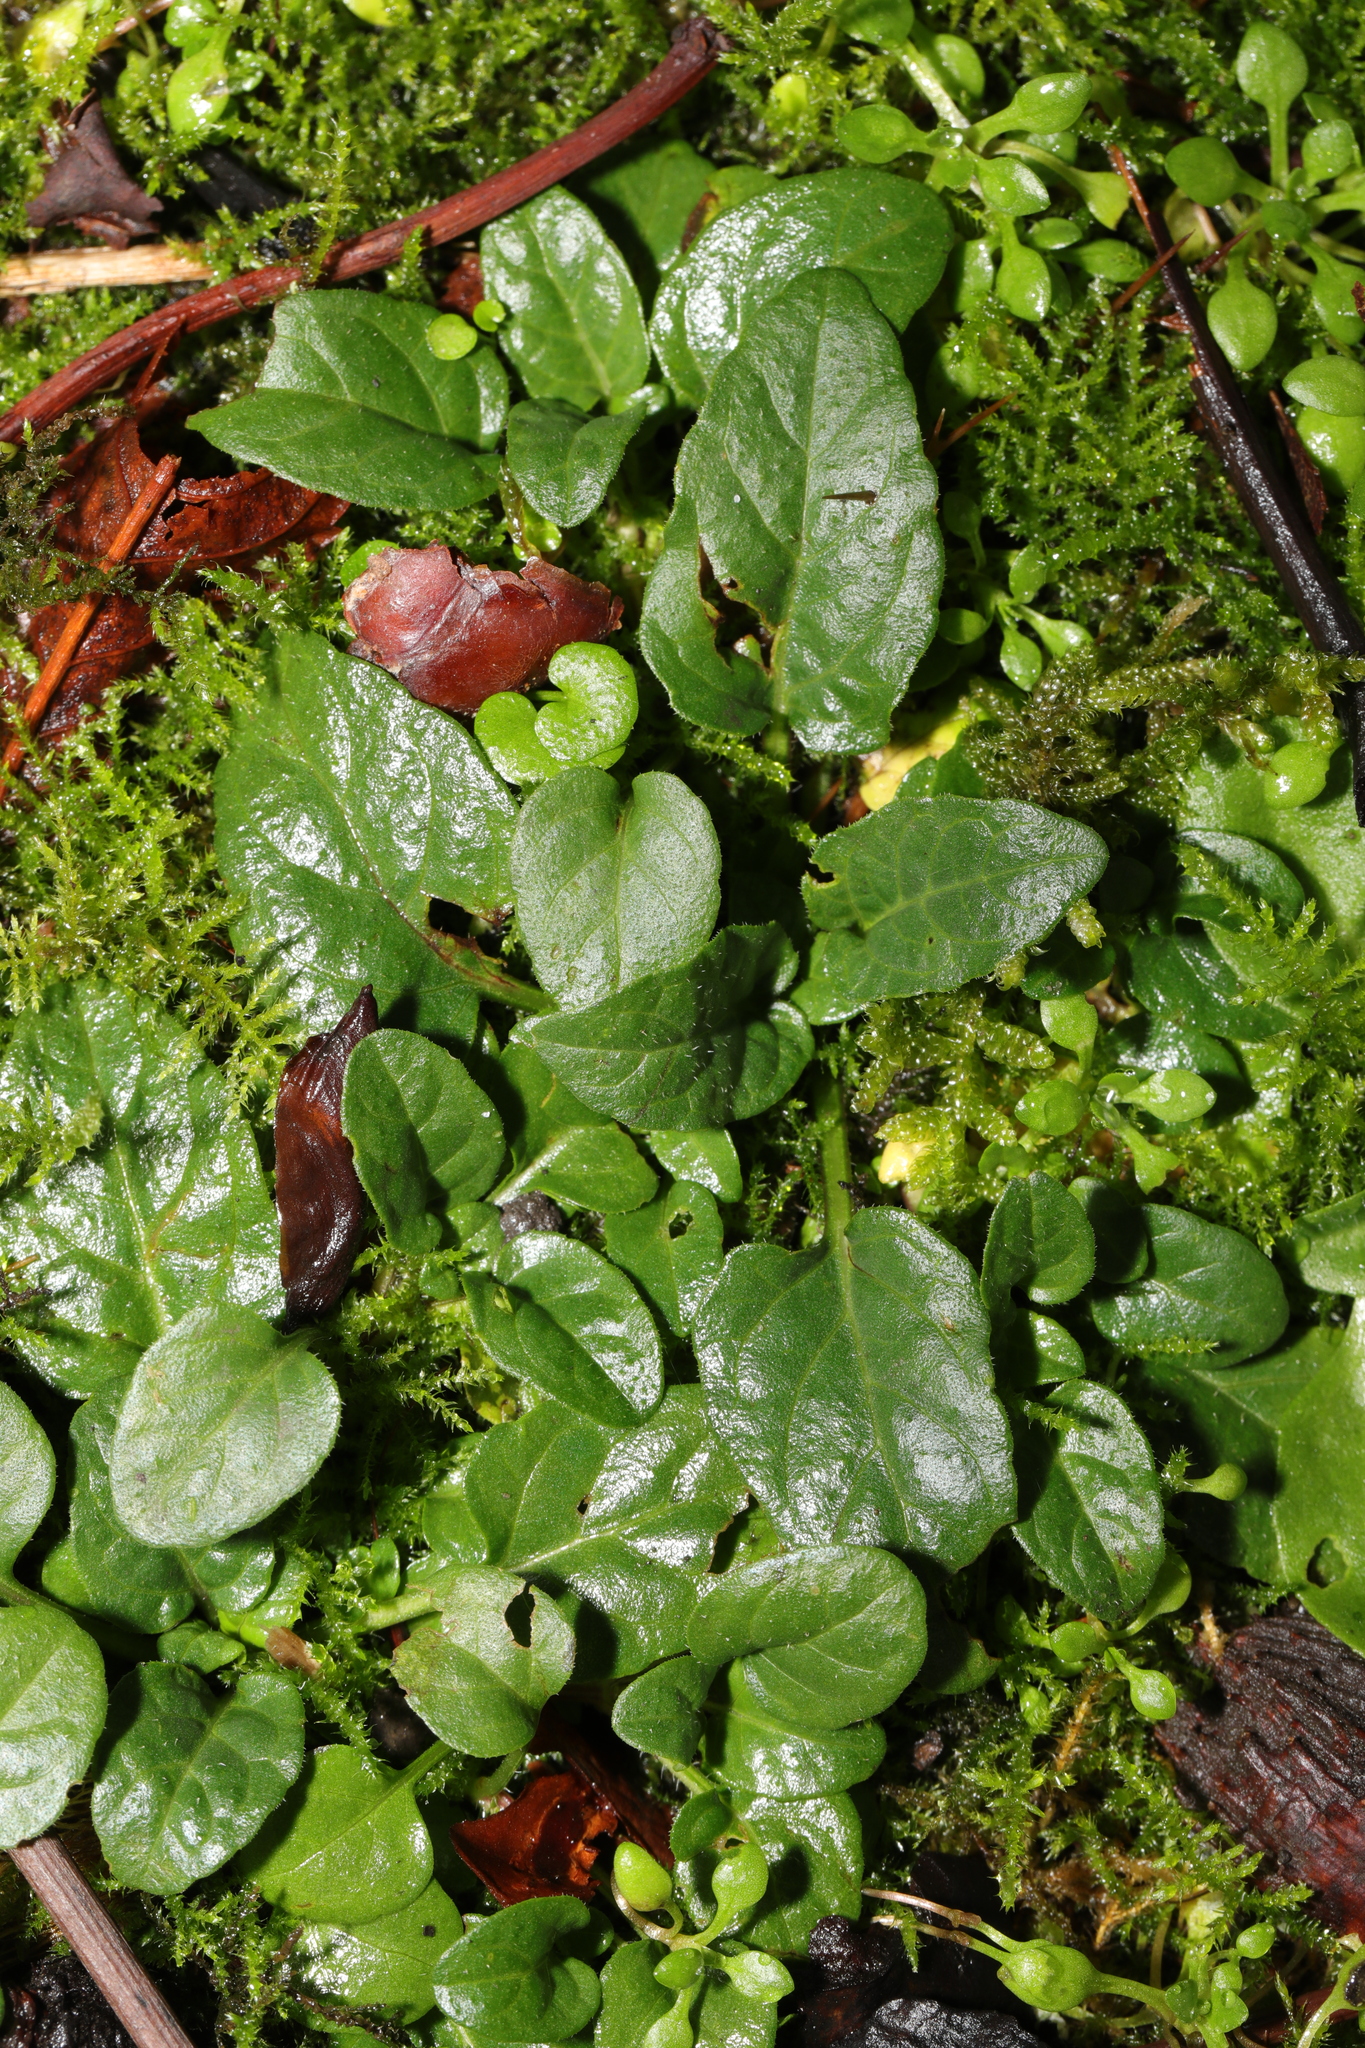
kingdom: Plantae
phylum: Tracheophyta
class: Magnoliopsida
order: Lamiales
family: Lamiaceae
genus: Prunella
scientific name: Prunella vulgaris
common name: Heal-all
